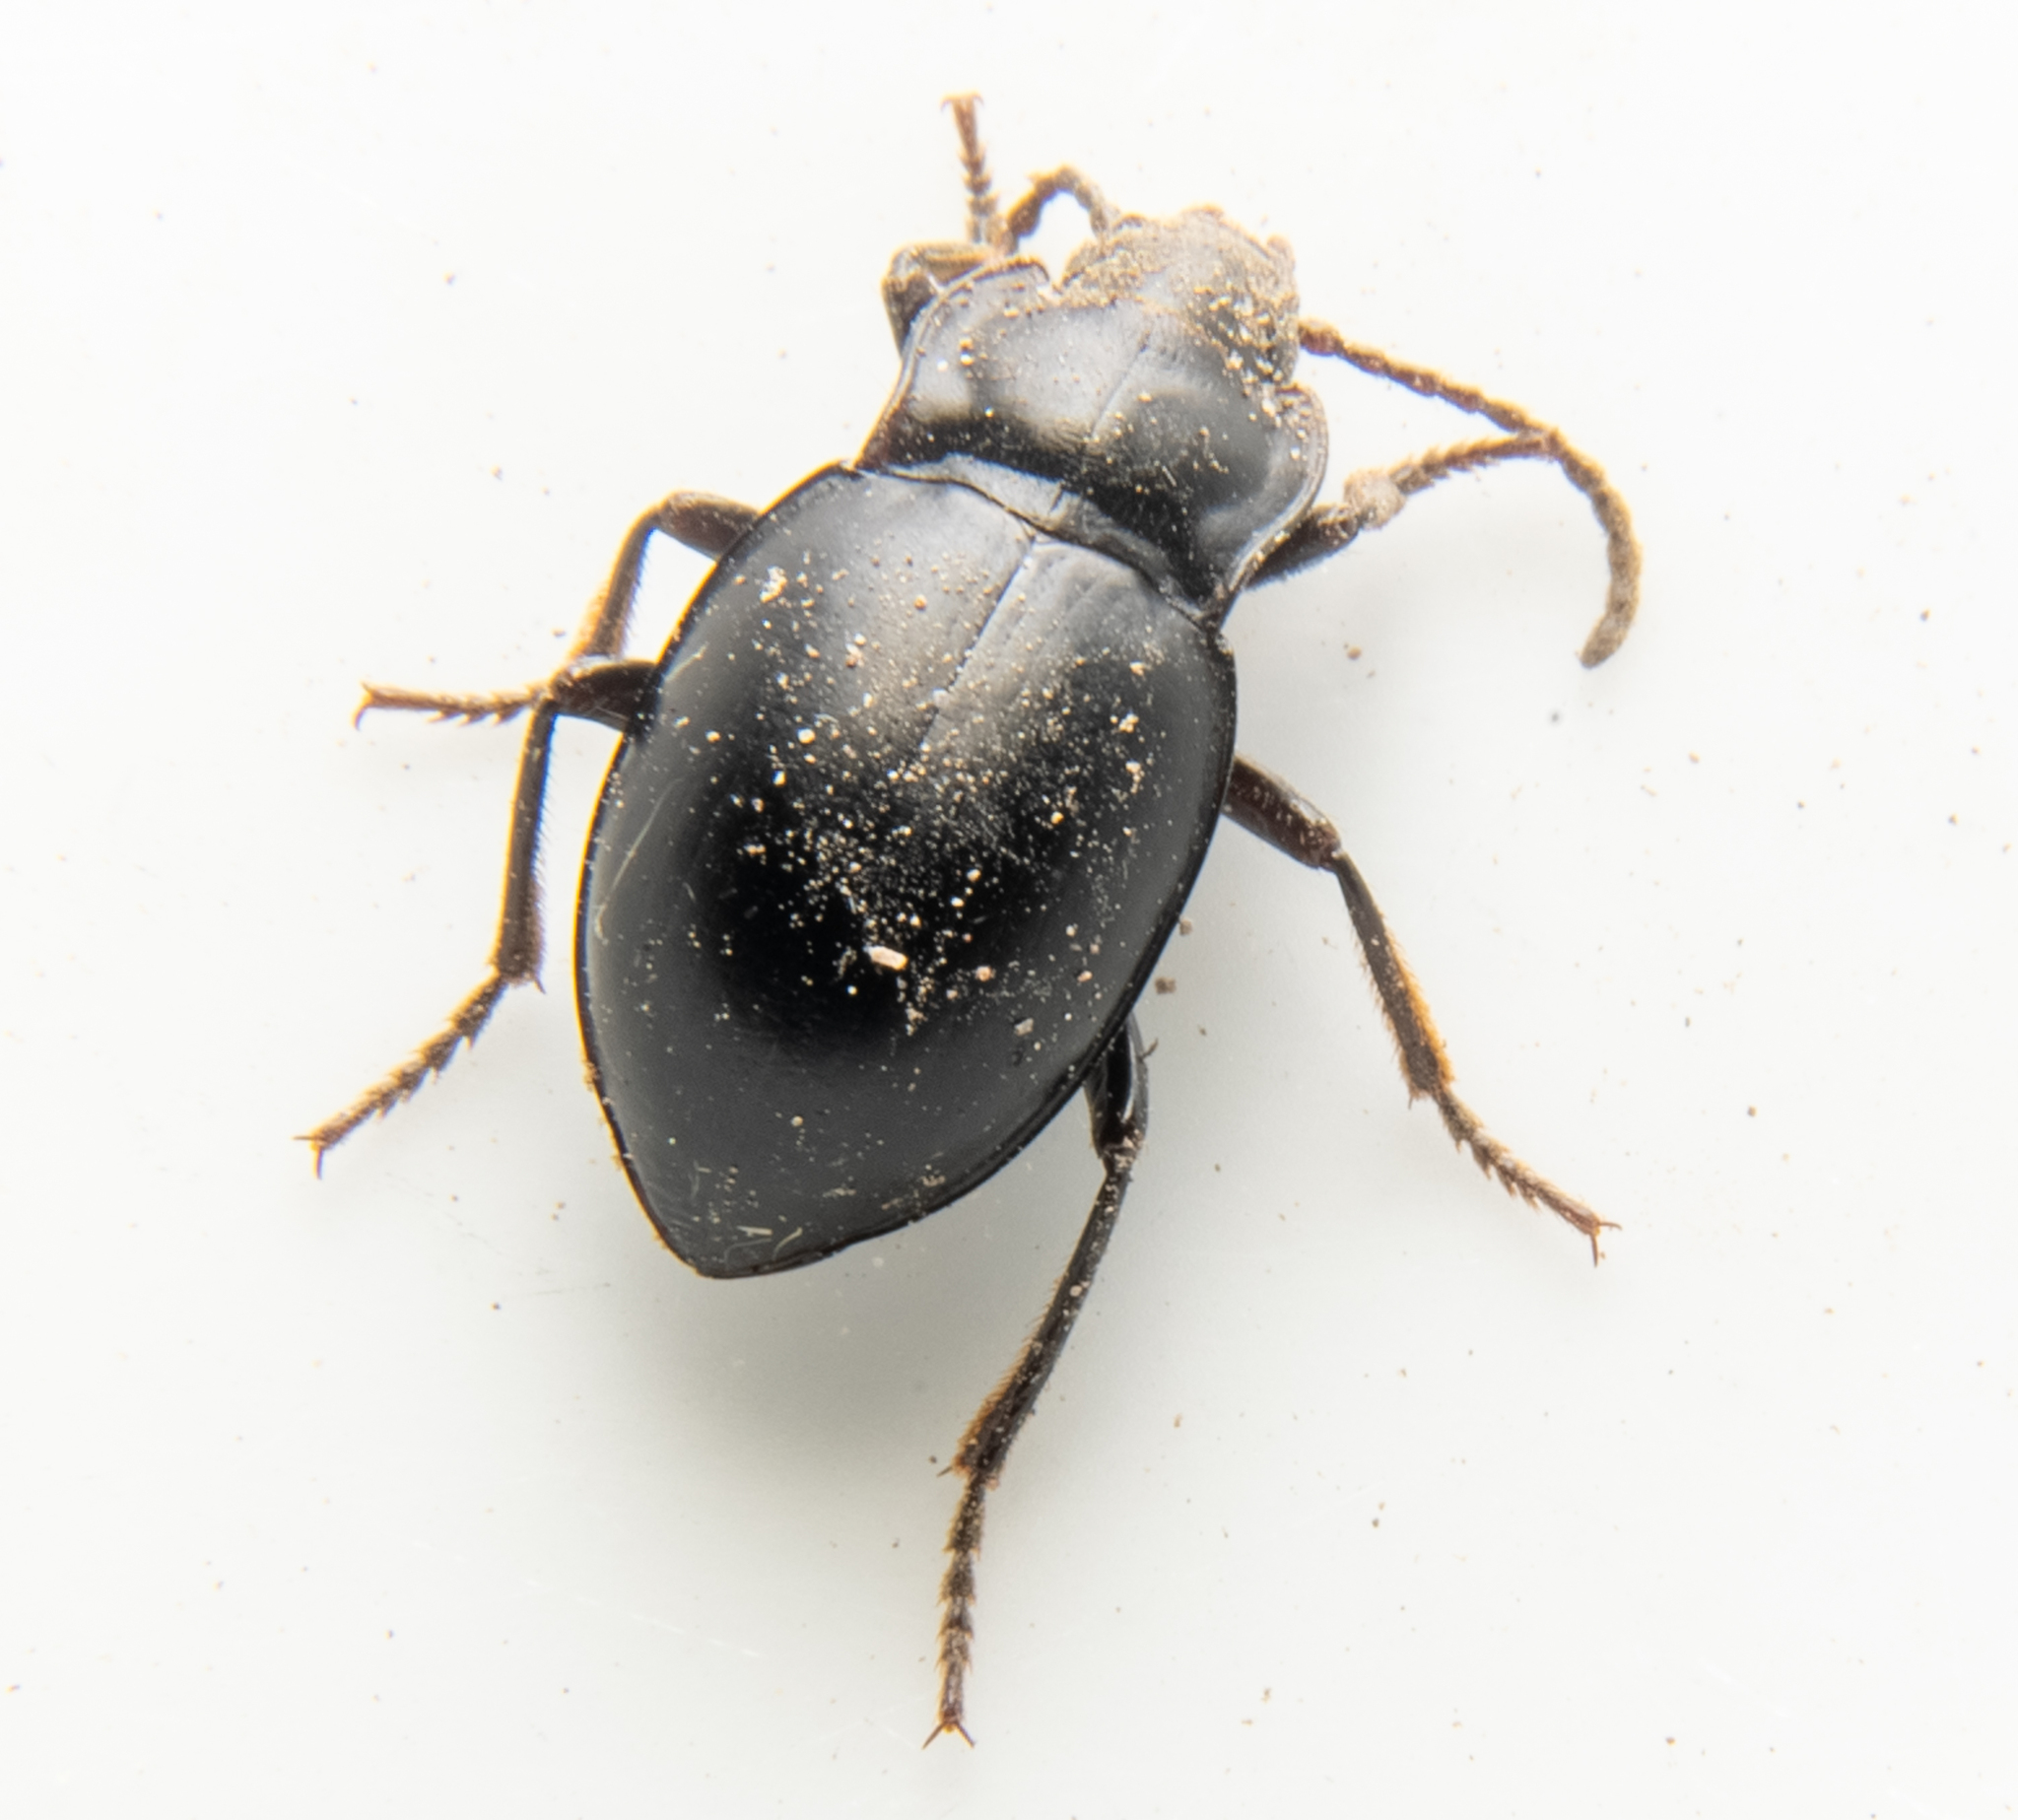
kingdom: Animalia
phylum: Arthropoda
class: Insecta
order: Coleoptera
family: Carabidae
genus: Metrius
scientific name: Metrius contractus
